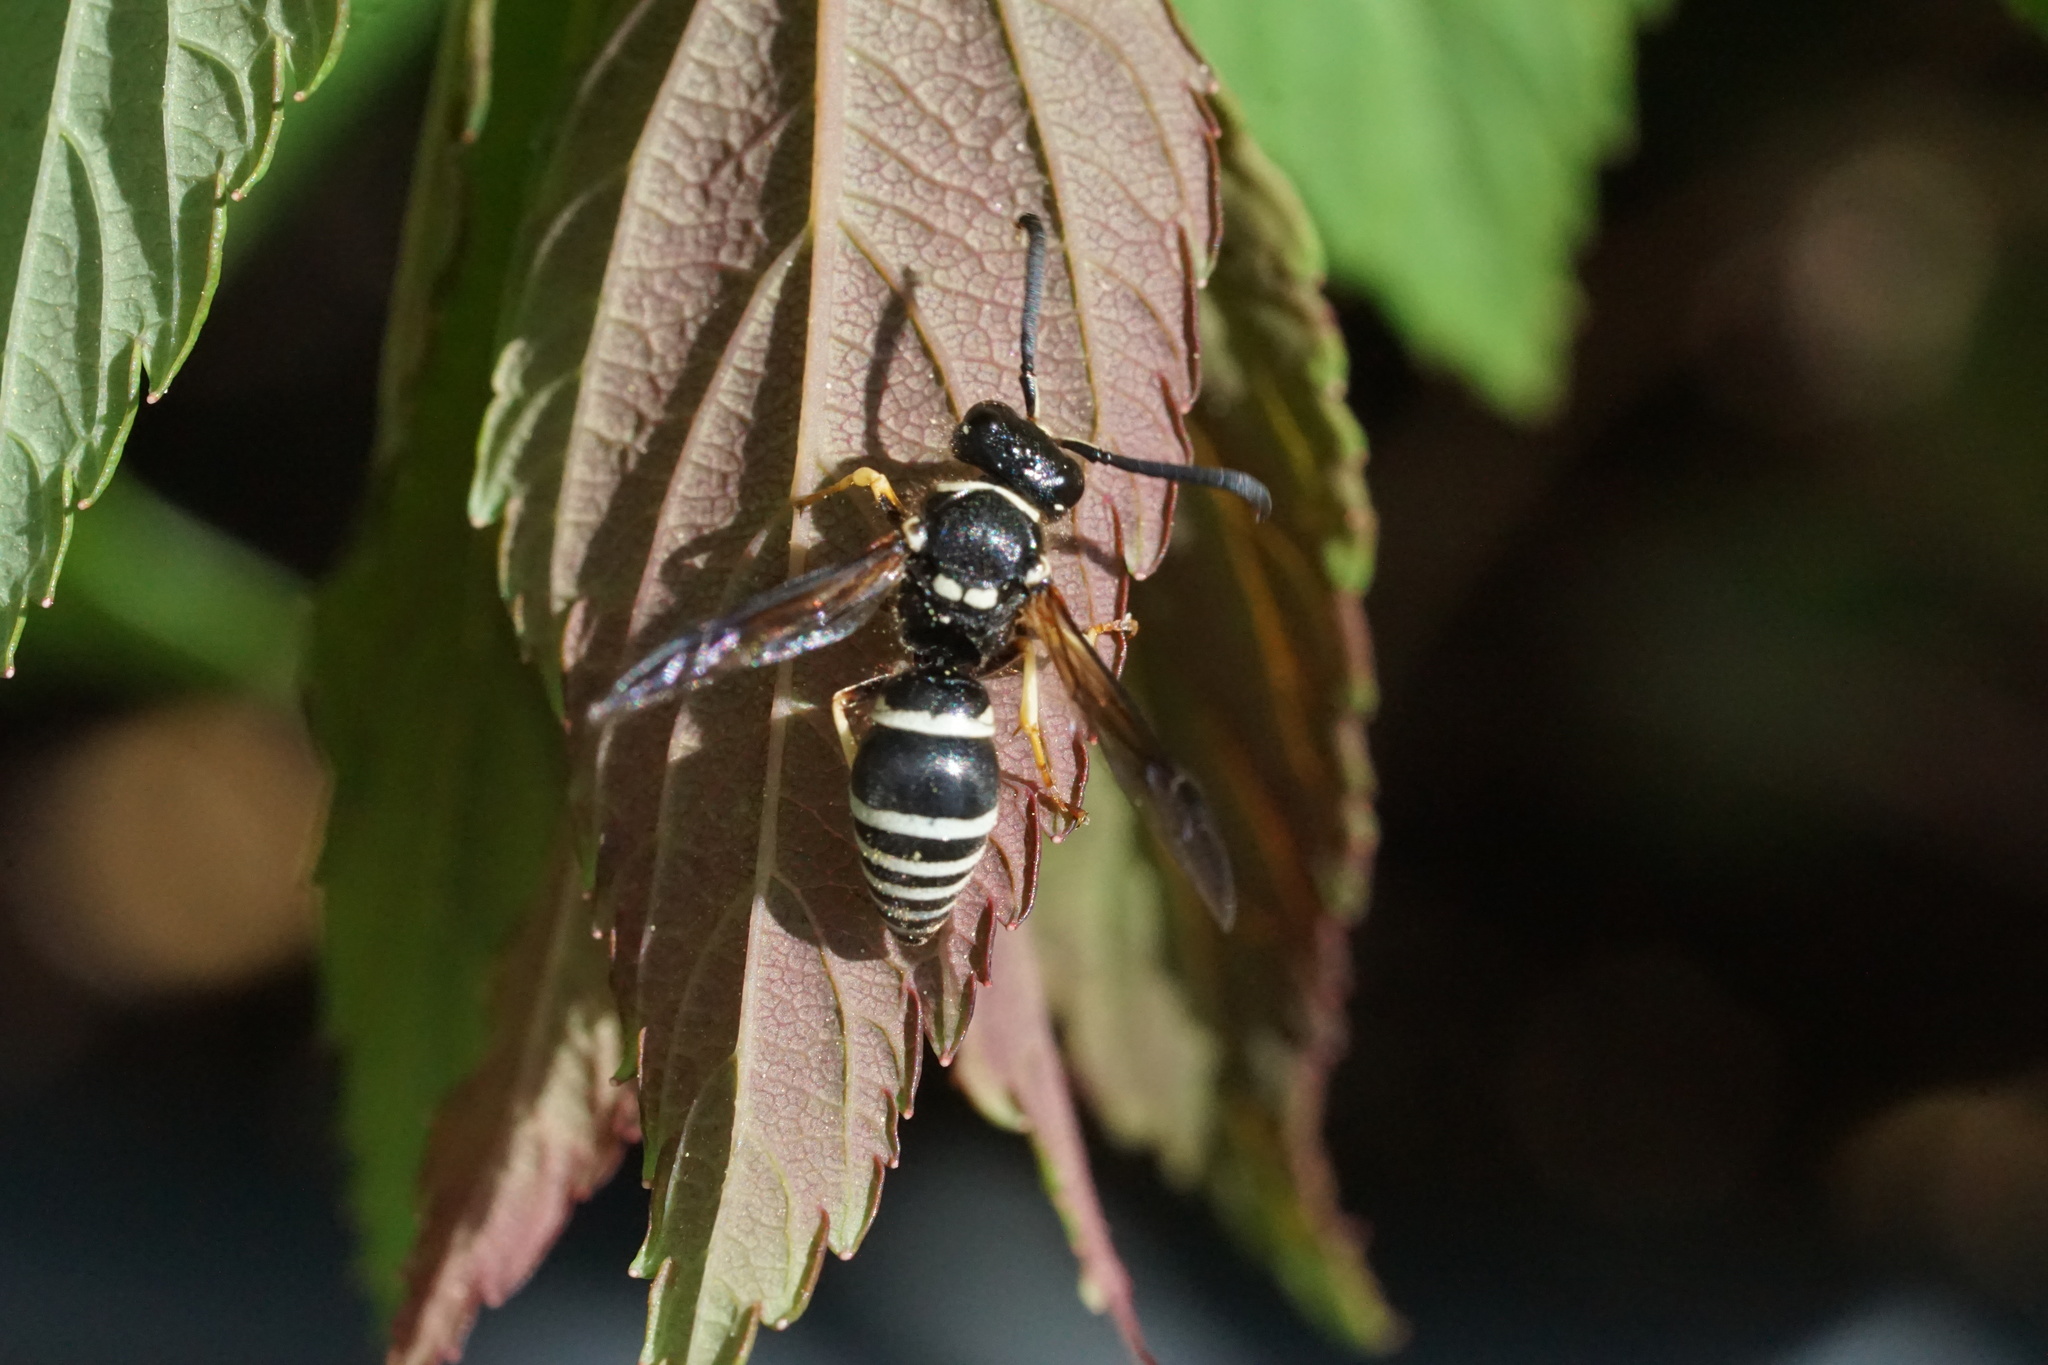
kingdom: Animalia
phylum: Arthropoda
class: Insecta
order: Hymenoptera
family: Vespidae
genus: Ancistrocerus
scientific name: Ancistrocerus
